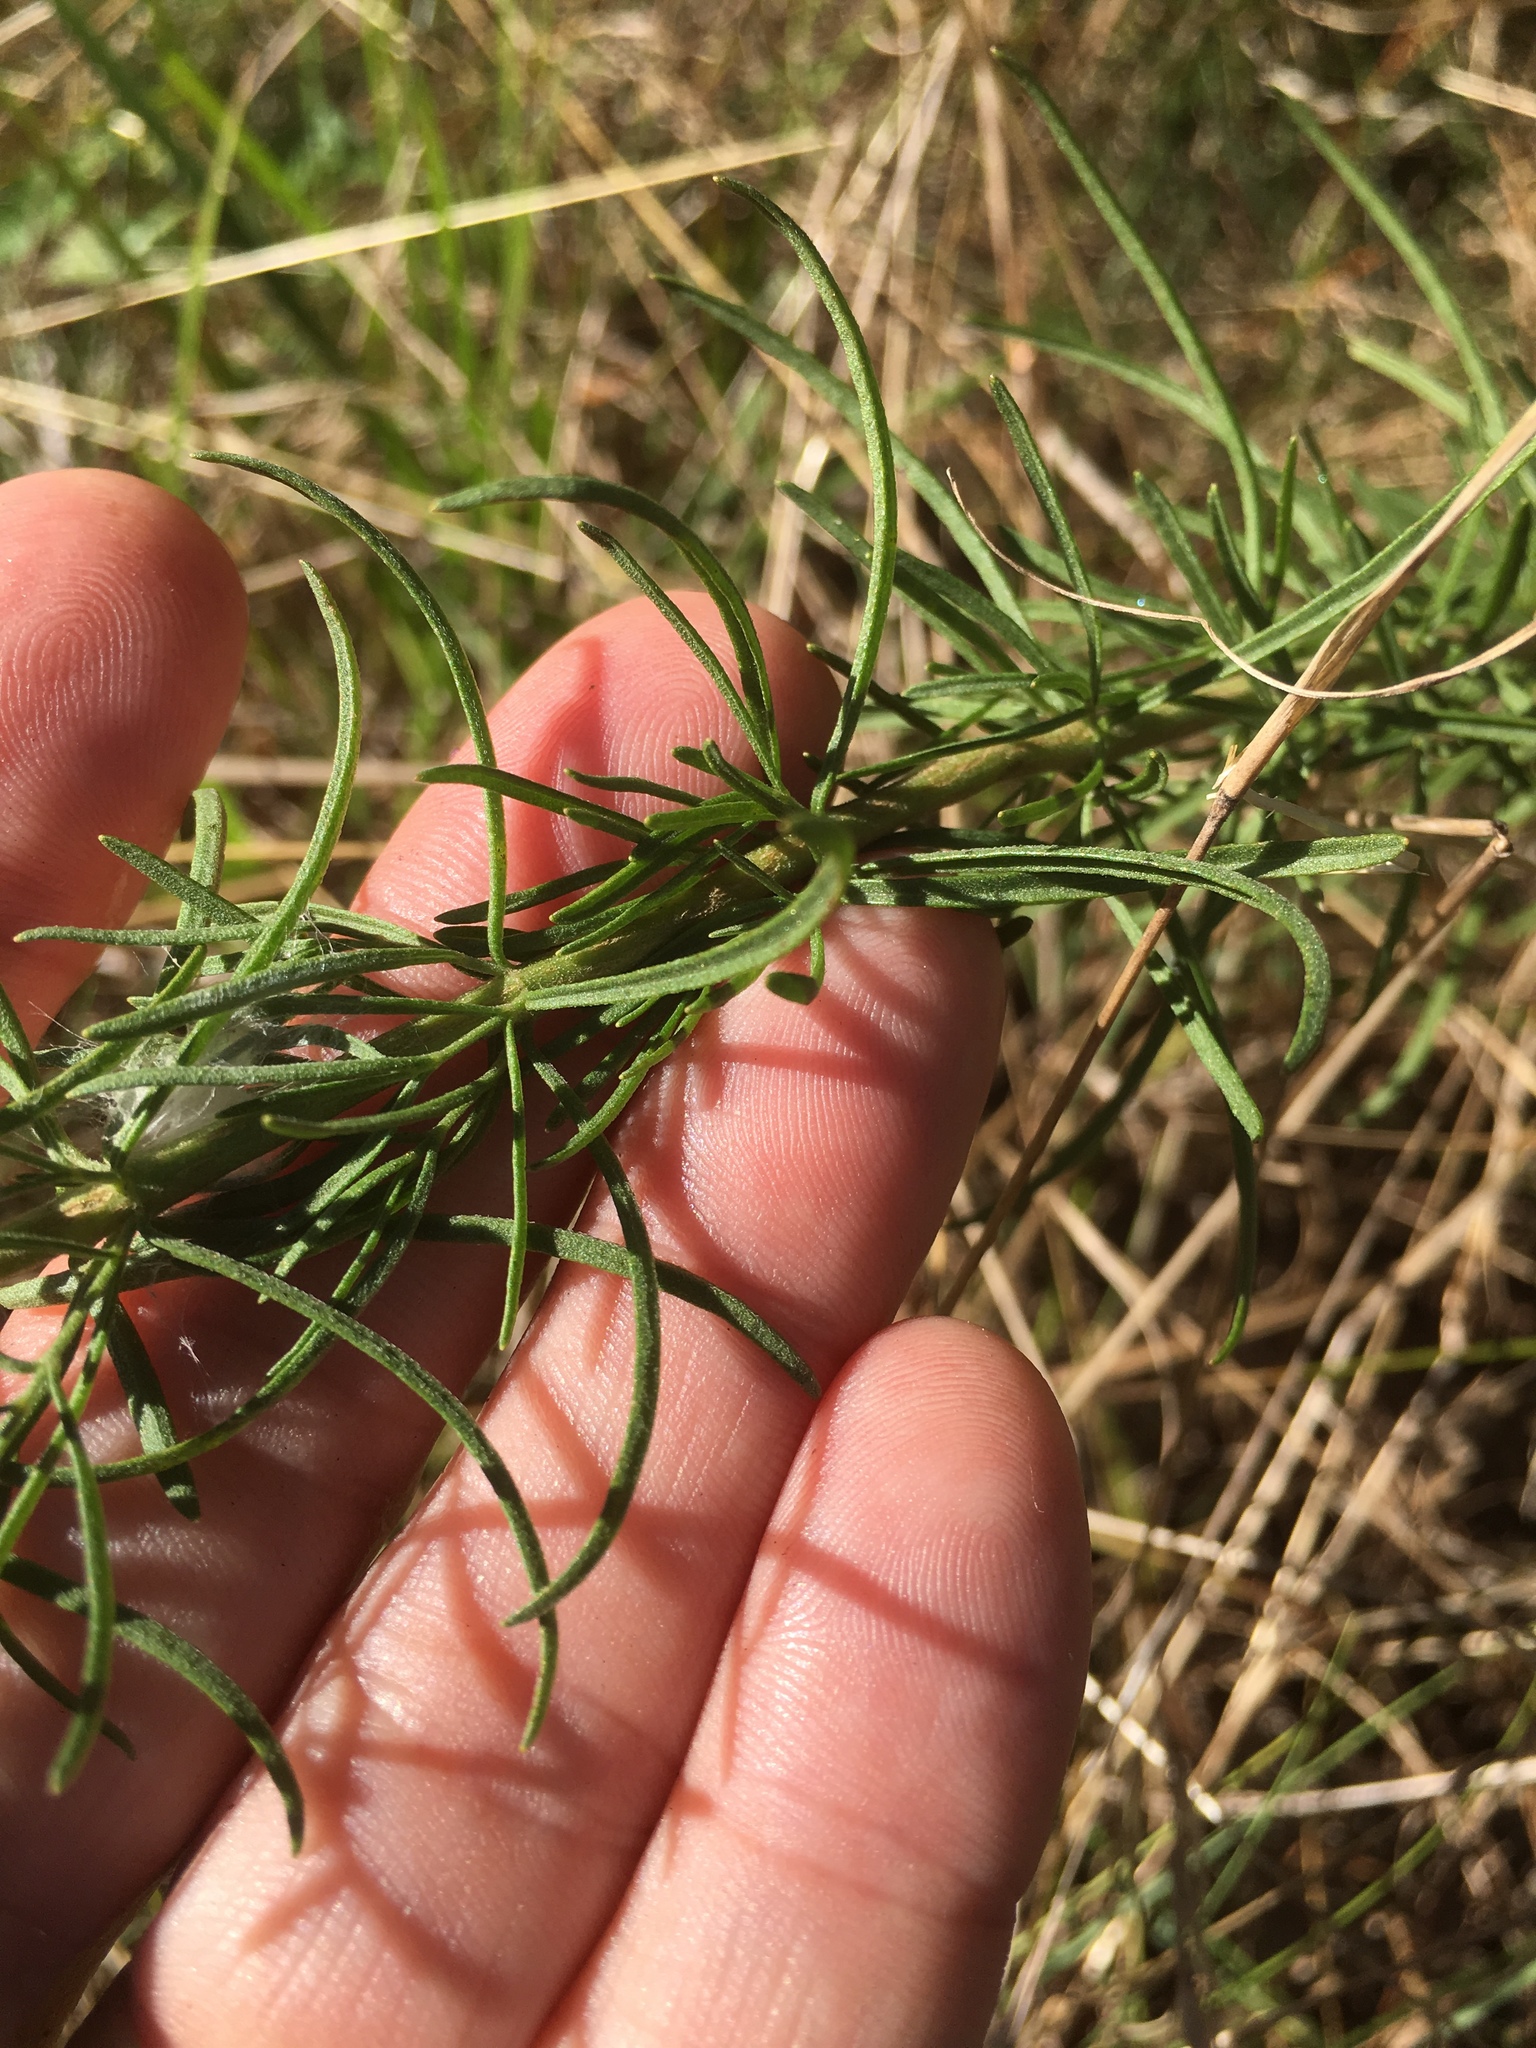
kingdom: Plantae
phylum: Tracheophyta
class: Magnoliopsida
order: Asterales
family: Asteraceae
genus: Eupatorium
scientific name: Eupatorium hyssopifolium
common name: Hyssop-leaf thoroughwort
